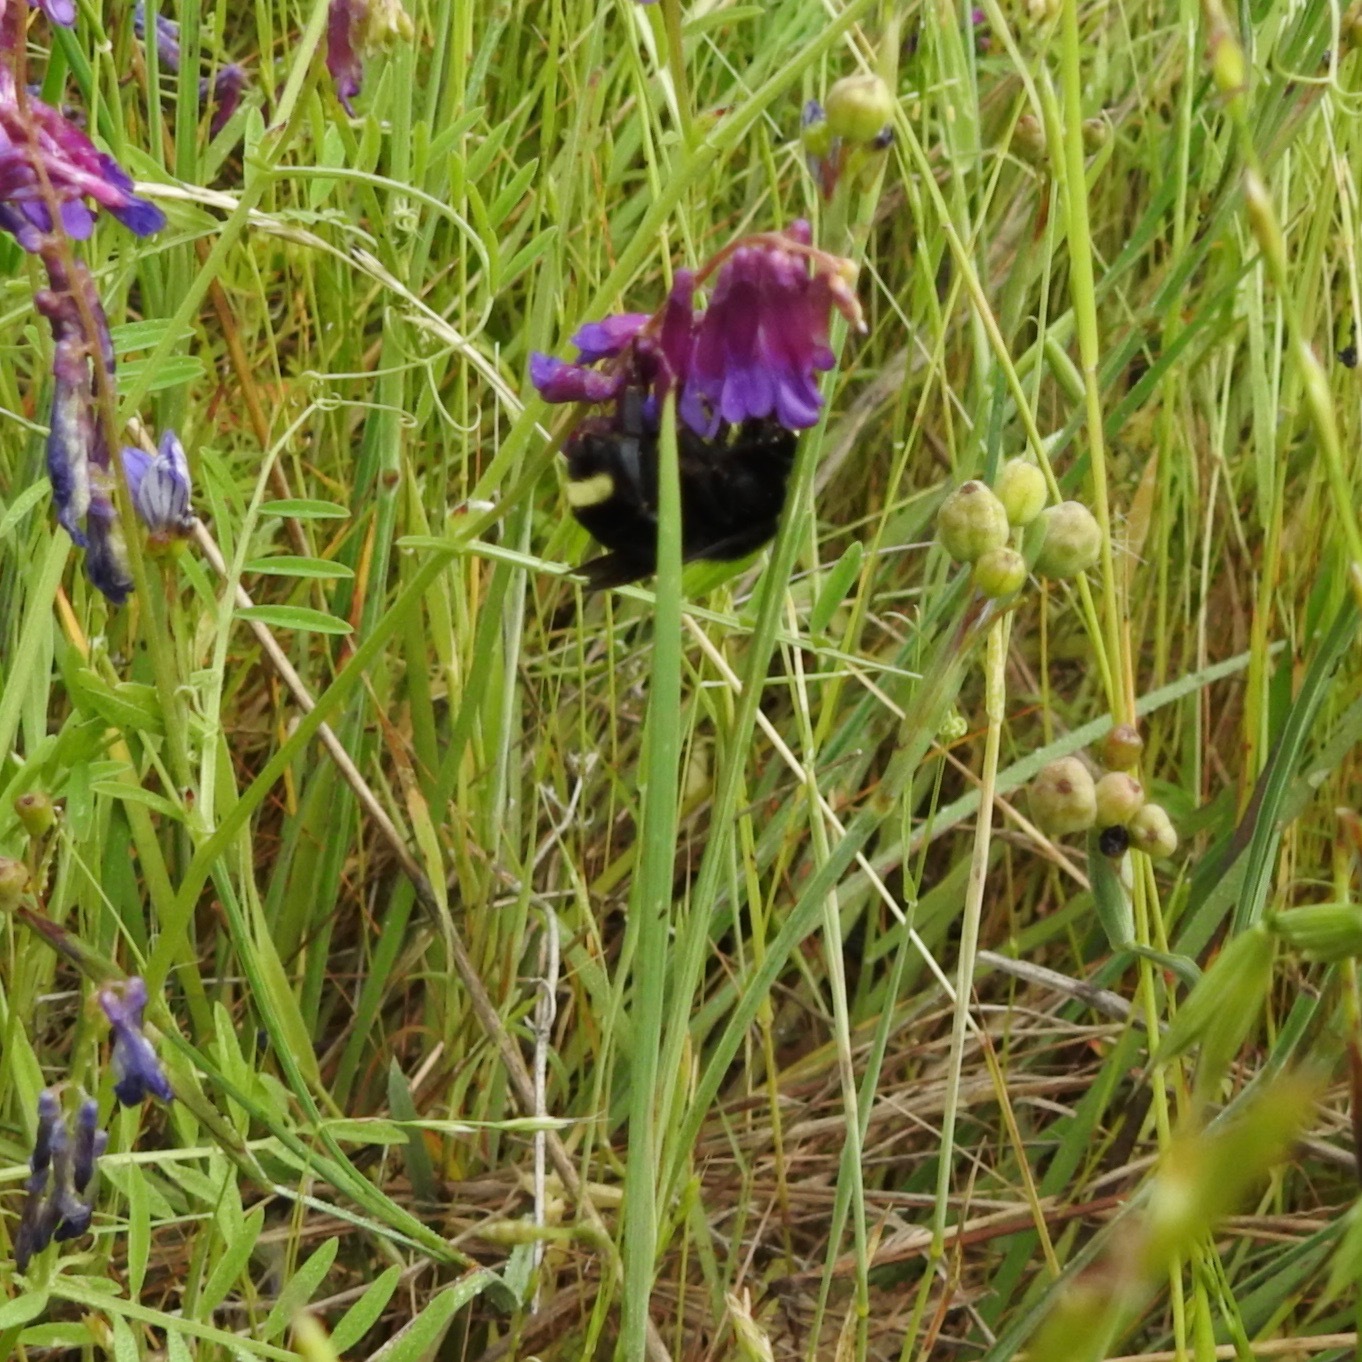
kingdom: Animalia
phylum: Arthropoda
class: Insecta
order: Hymenoptera
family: Apidae
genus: Bombus
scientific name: Bombus vosnesenskii
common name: Vosnesensky bumble bee
